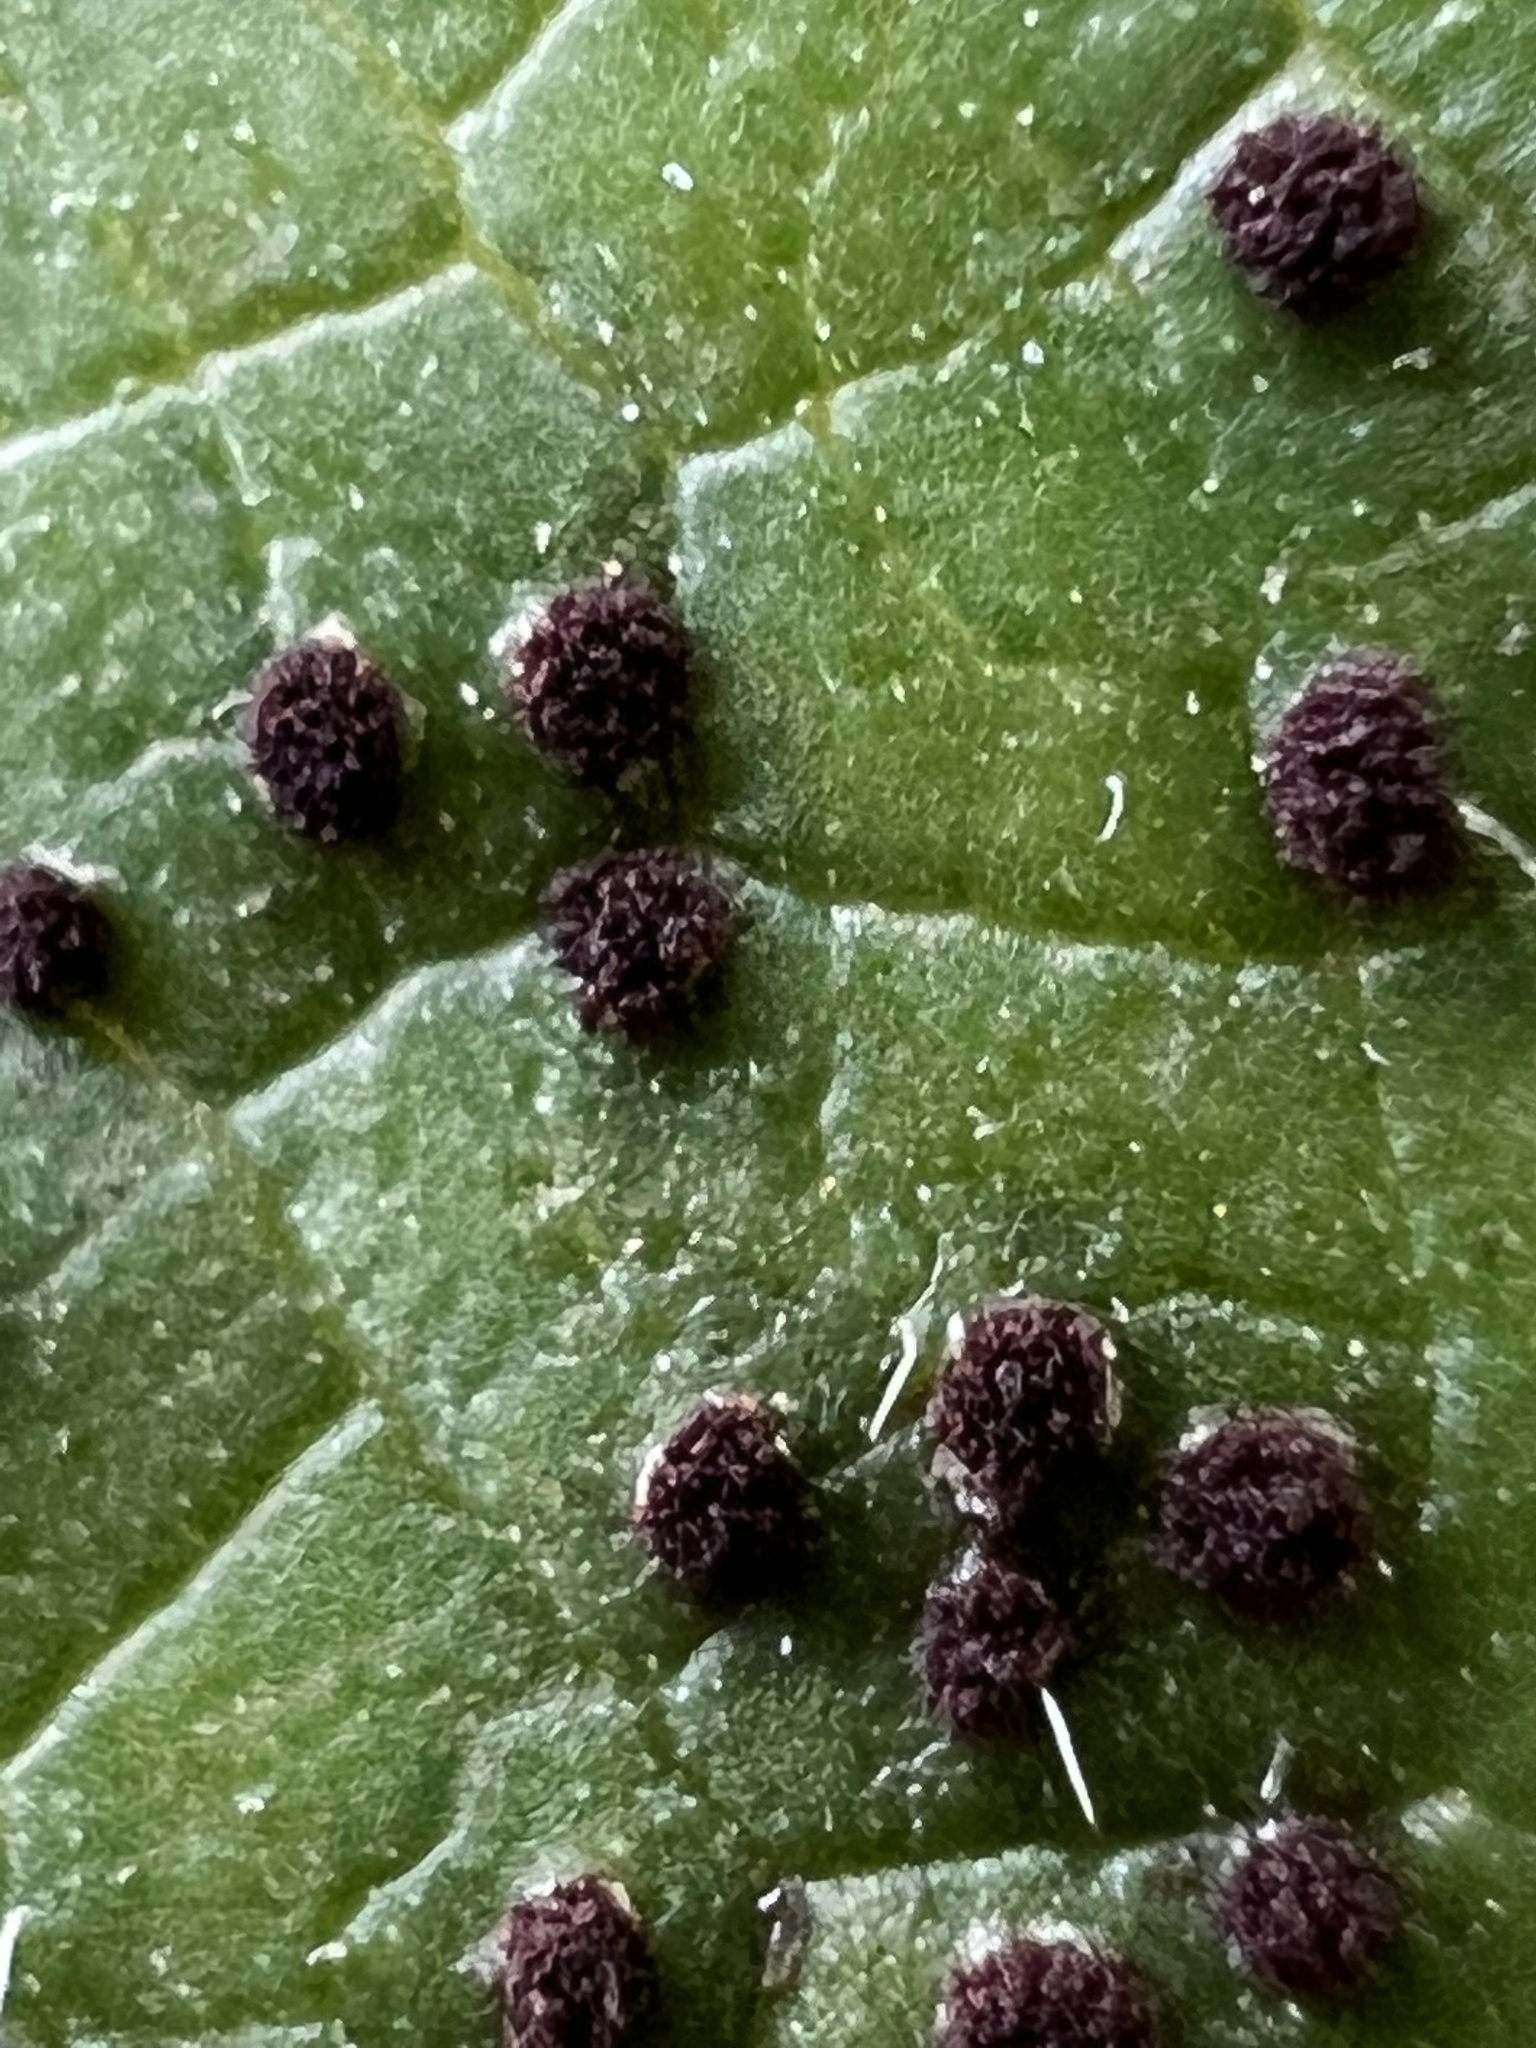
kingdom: Fungi
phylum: Basidiomycota
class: Pucciniomycetes
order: Pucciniales
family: Pucciniaceae
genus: Uromyces
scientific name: Uromyces appendiculatus
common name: Runner bean rust
